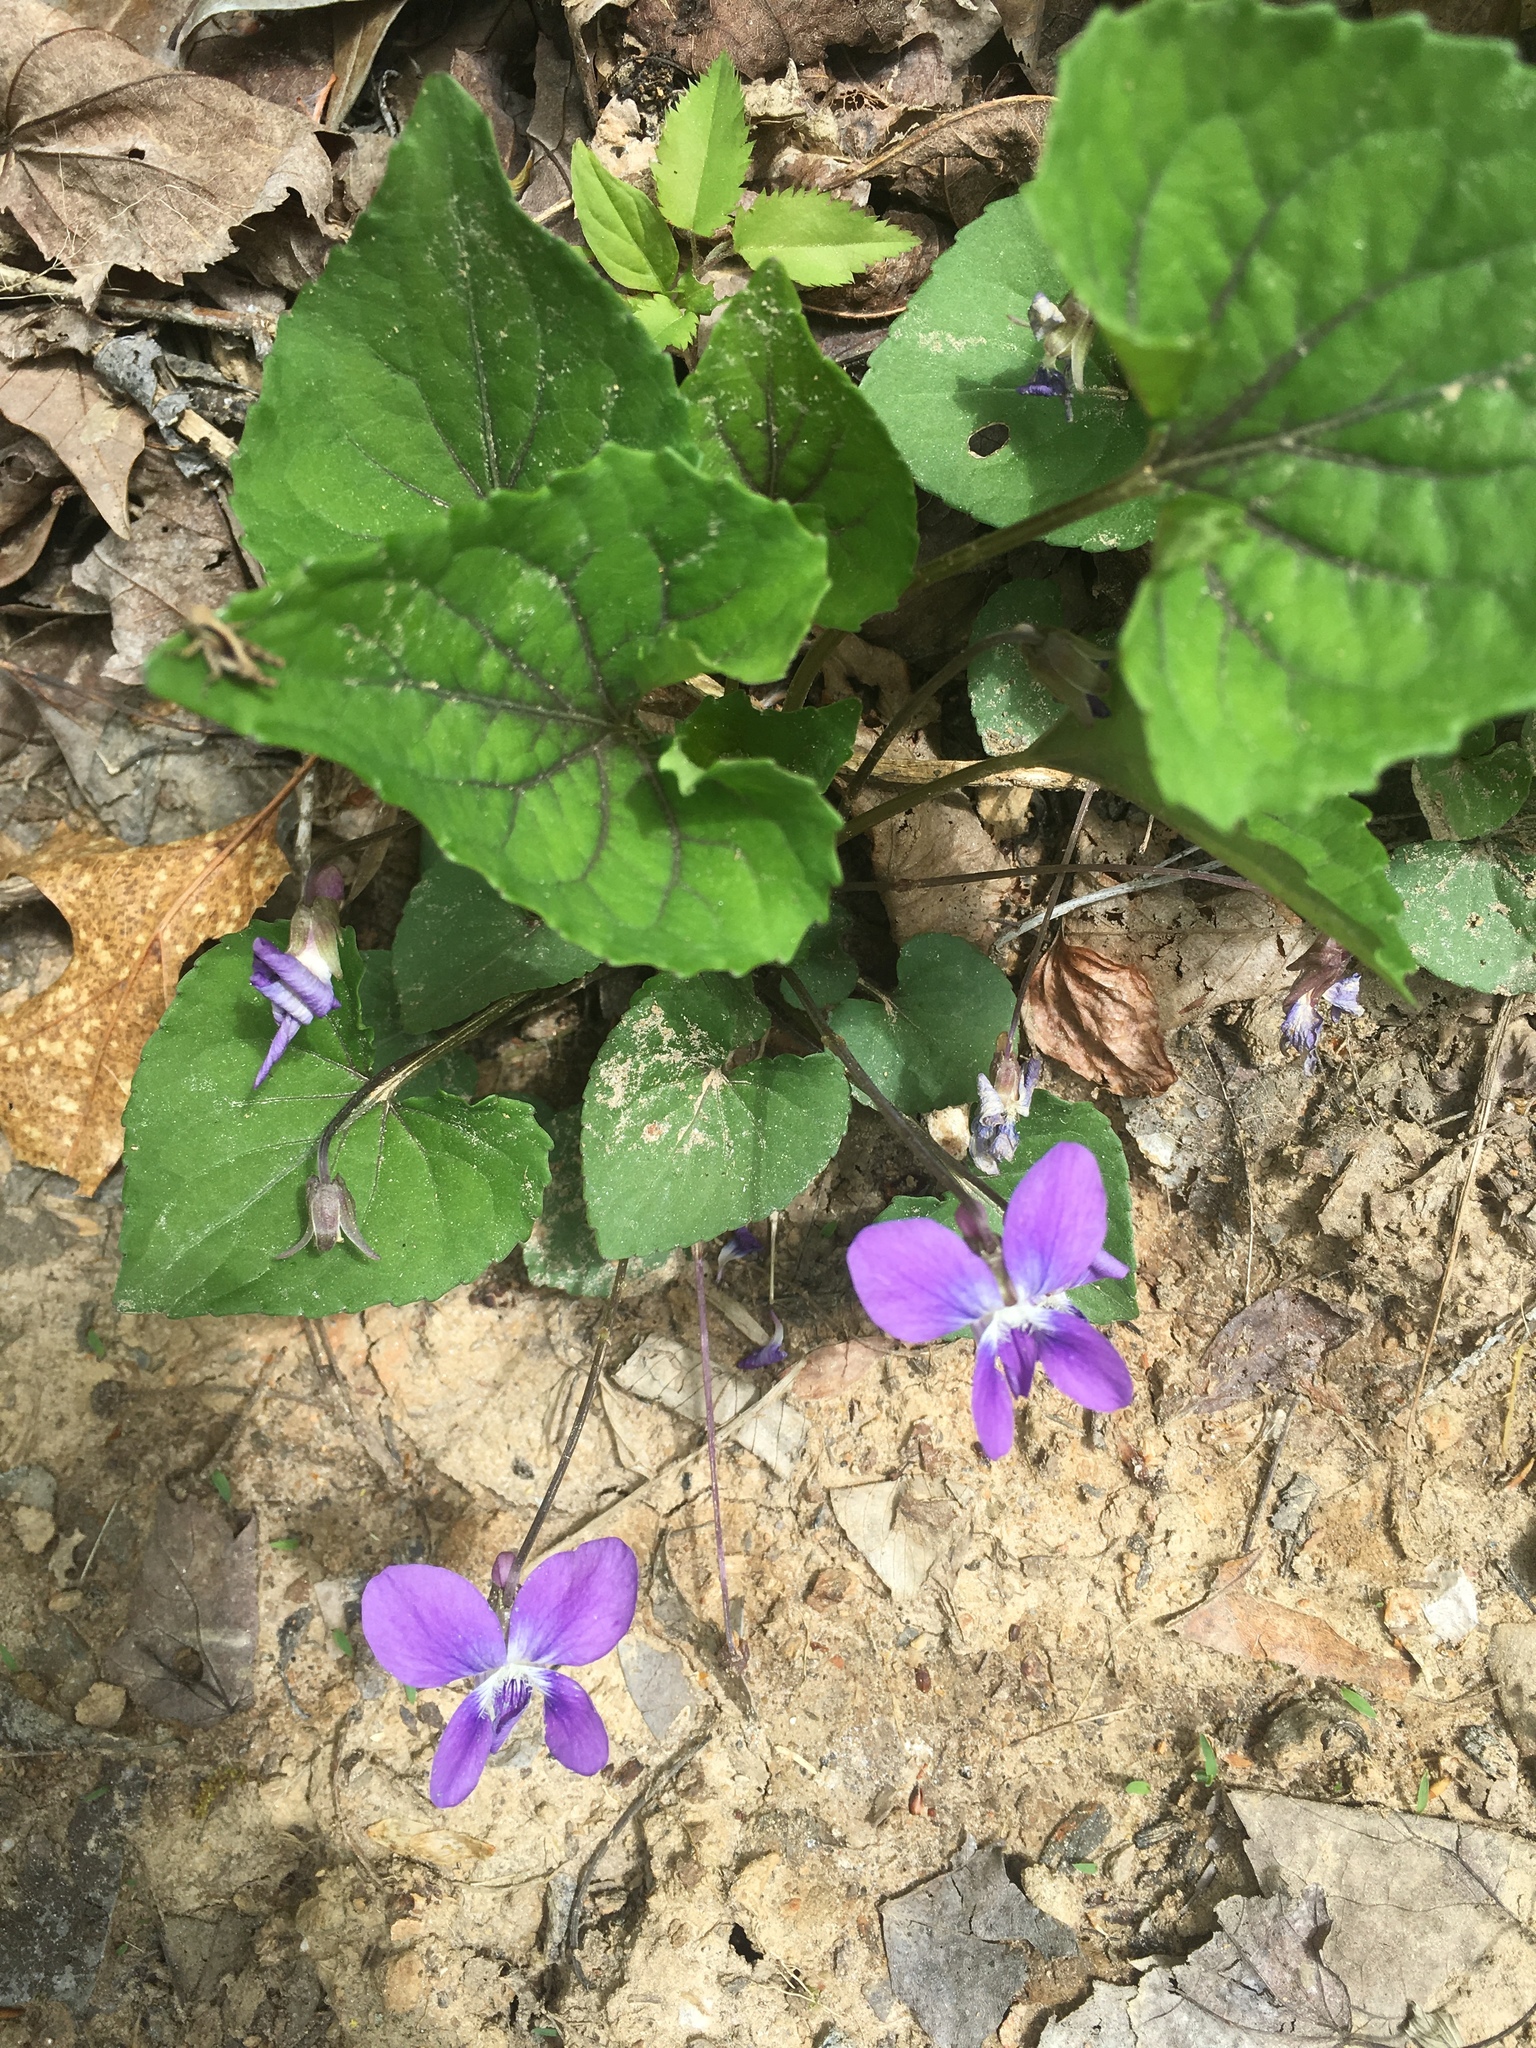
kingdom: Plantae
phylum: Tracheophyta
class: Magnoliopsida
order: Malpighiales
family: Violaceae
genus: Viola
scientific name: Viola sororia
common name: Dooryard violet
